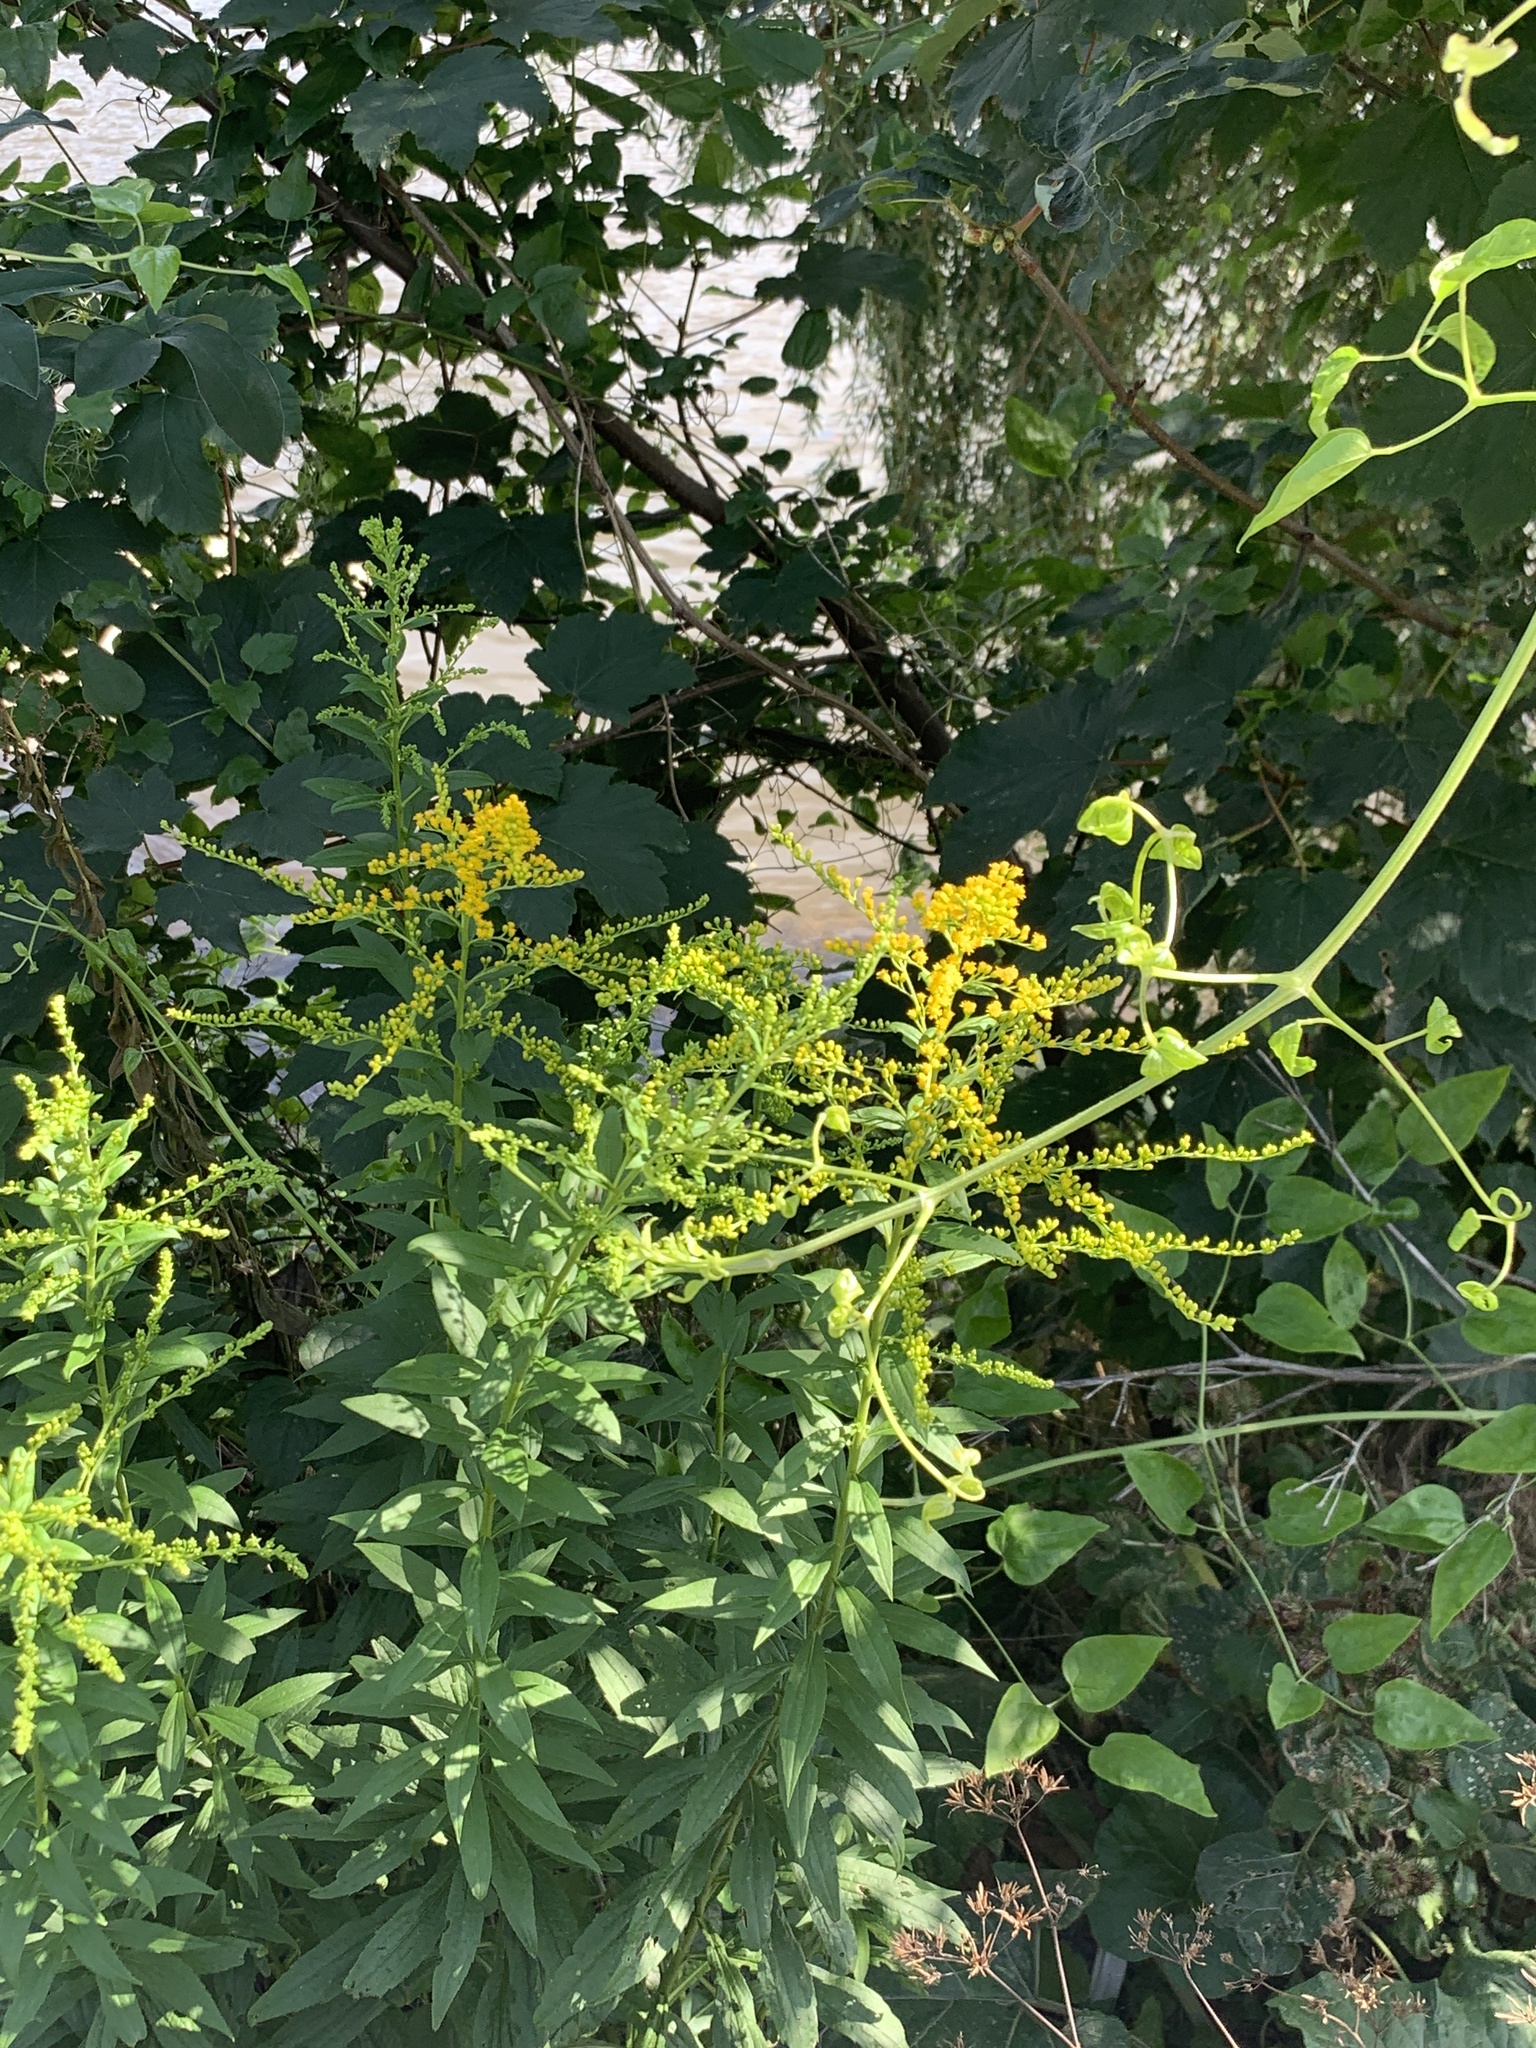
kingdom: Plantae
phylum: Tracheophyta
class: Magnoliopsida
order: Asterales
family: Asteraceae
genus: Solidago
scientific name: Solidago canadensis
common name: Canada goldenrod
